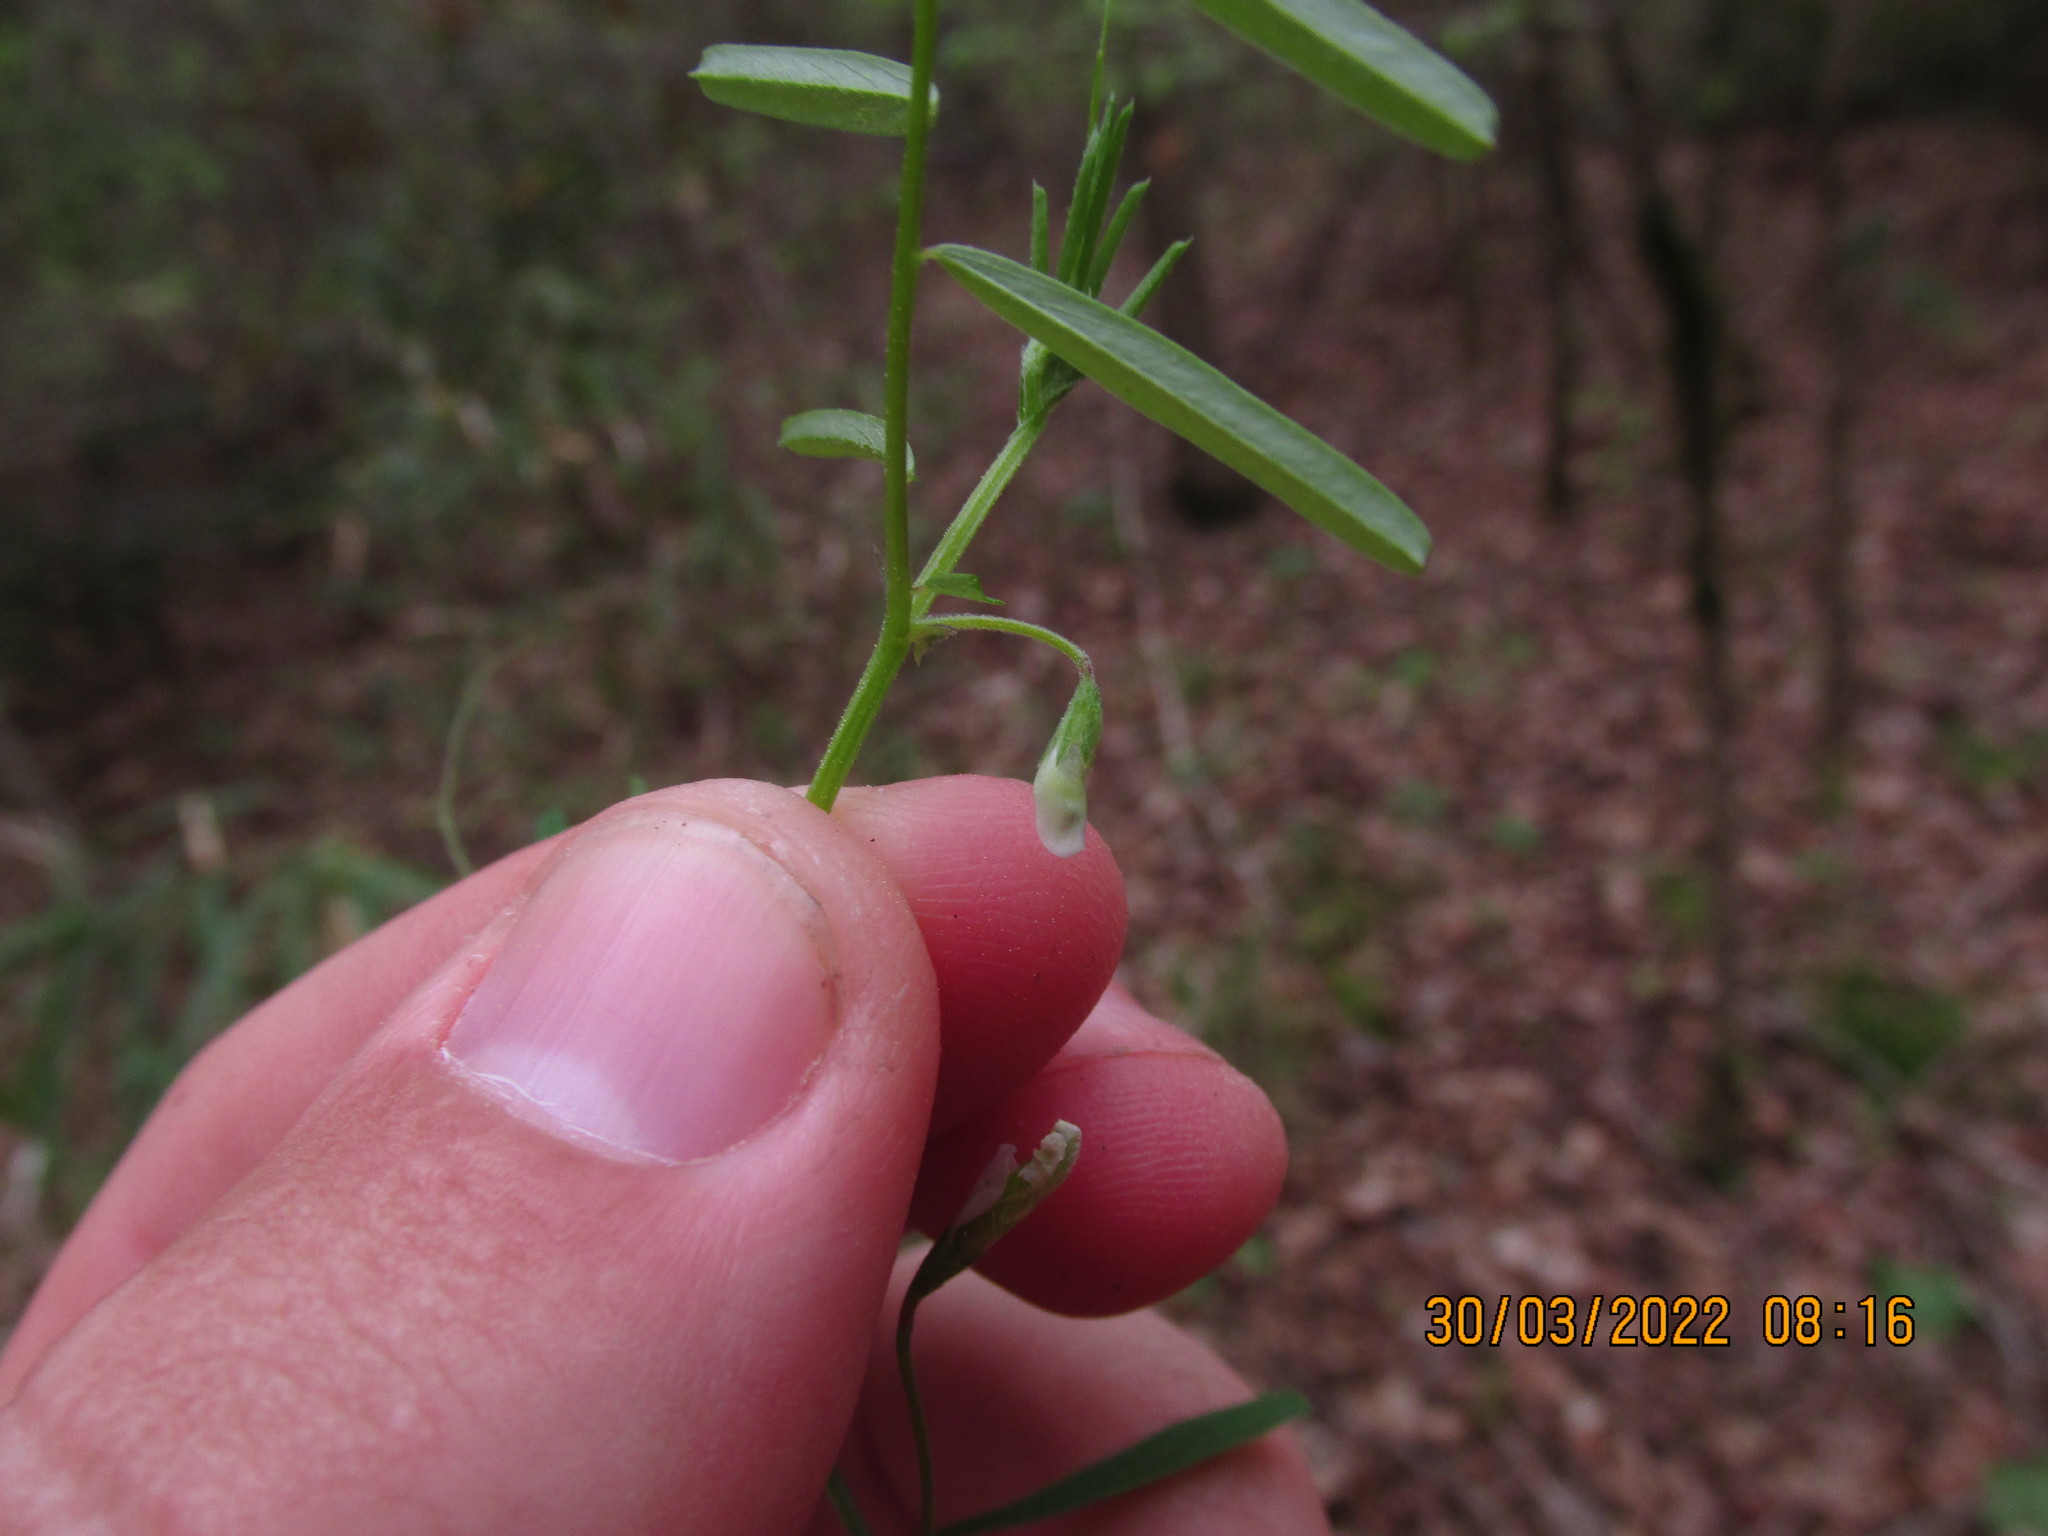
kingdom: Plantae
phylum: Tracheophyta
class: Magnoliopsida
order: Fabales
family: Fabaceae
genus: Vicia
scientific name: Vicia minutiflora
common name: Pygmy-flower vetch
